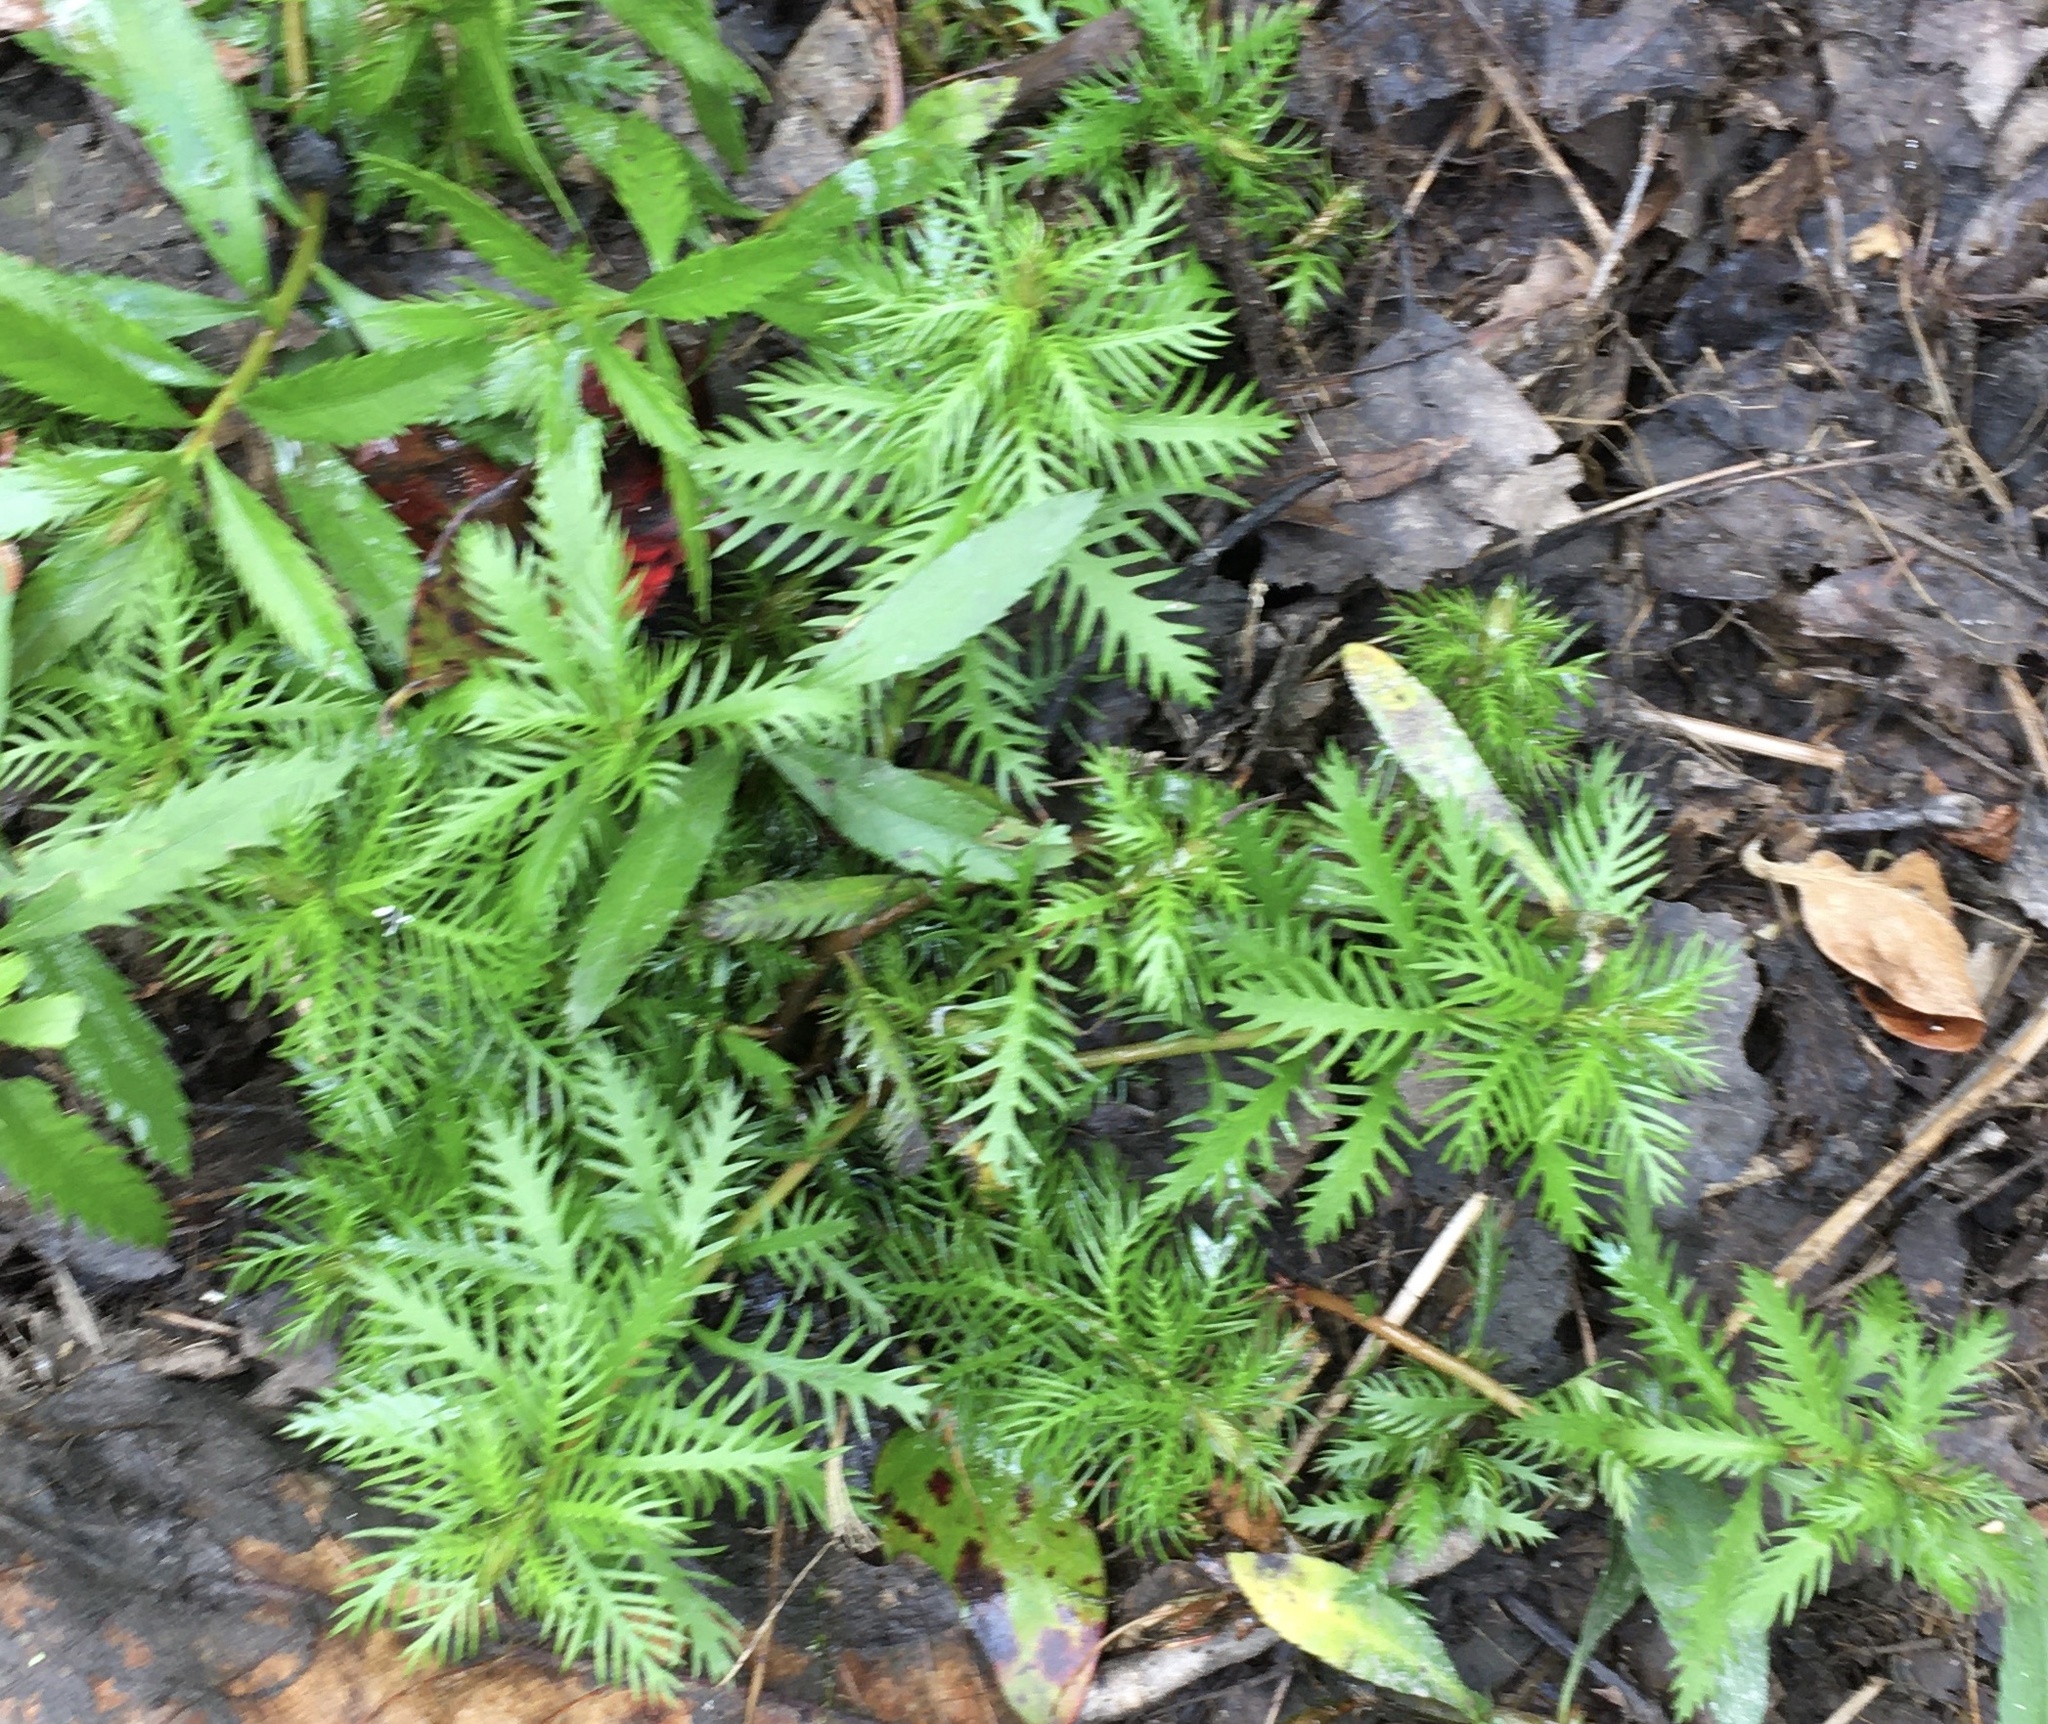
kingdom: Plantae
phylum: Tracheophyta
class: Magnoliopsida
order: Saxifragales
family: Haloragaceae
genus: Proserpinaca
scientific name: Proserpinaca palustris
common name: Marsh mermaidweed
